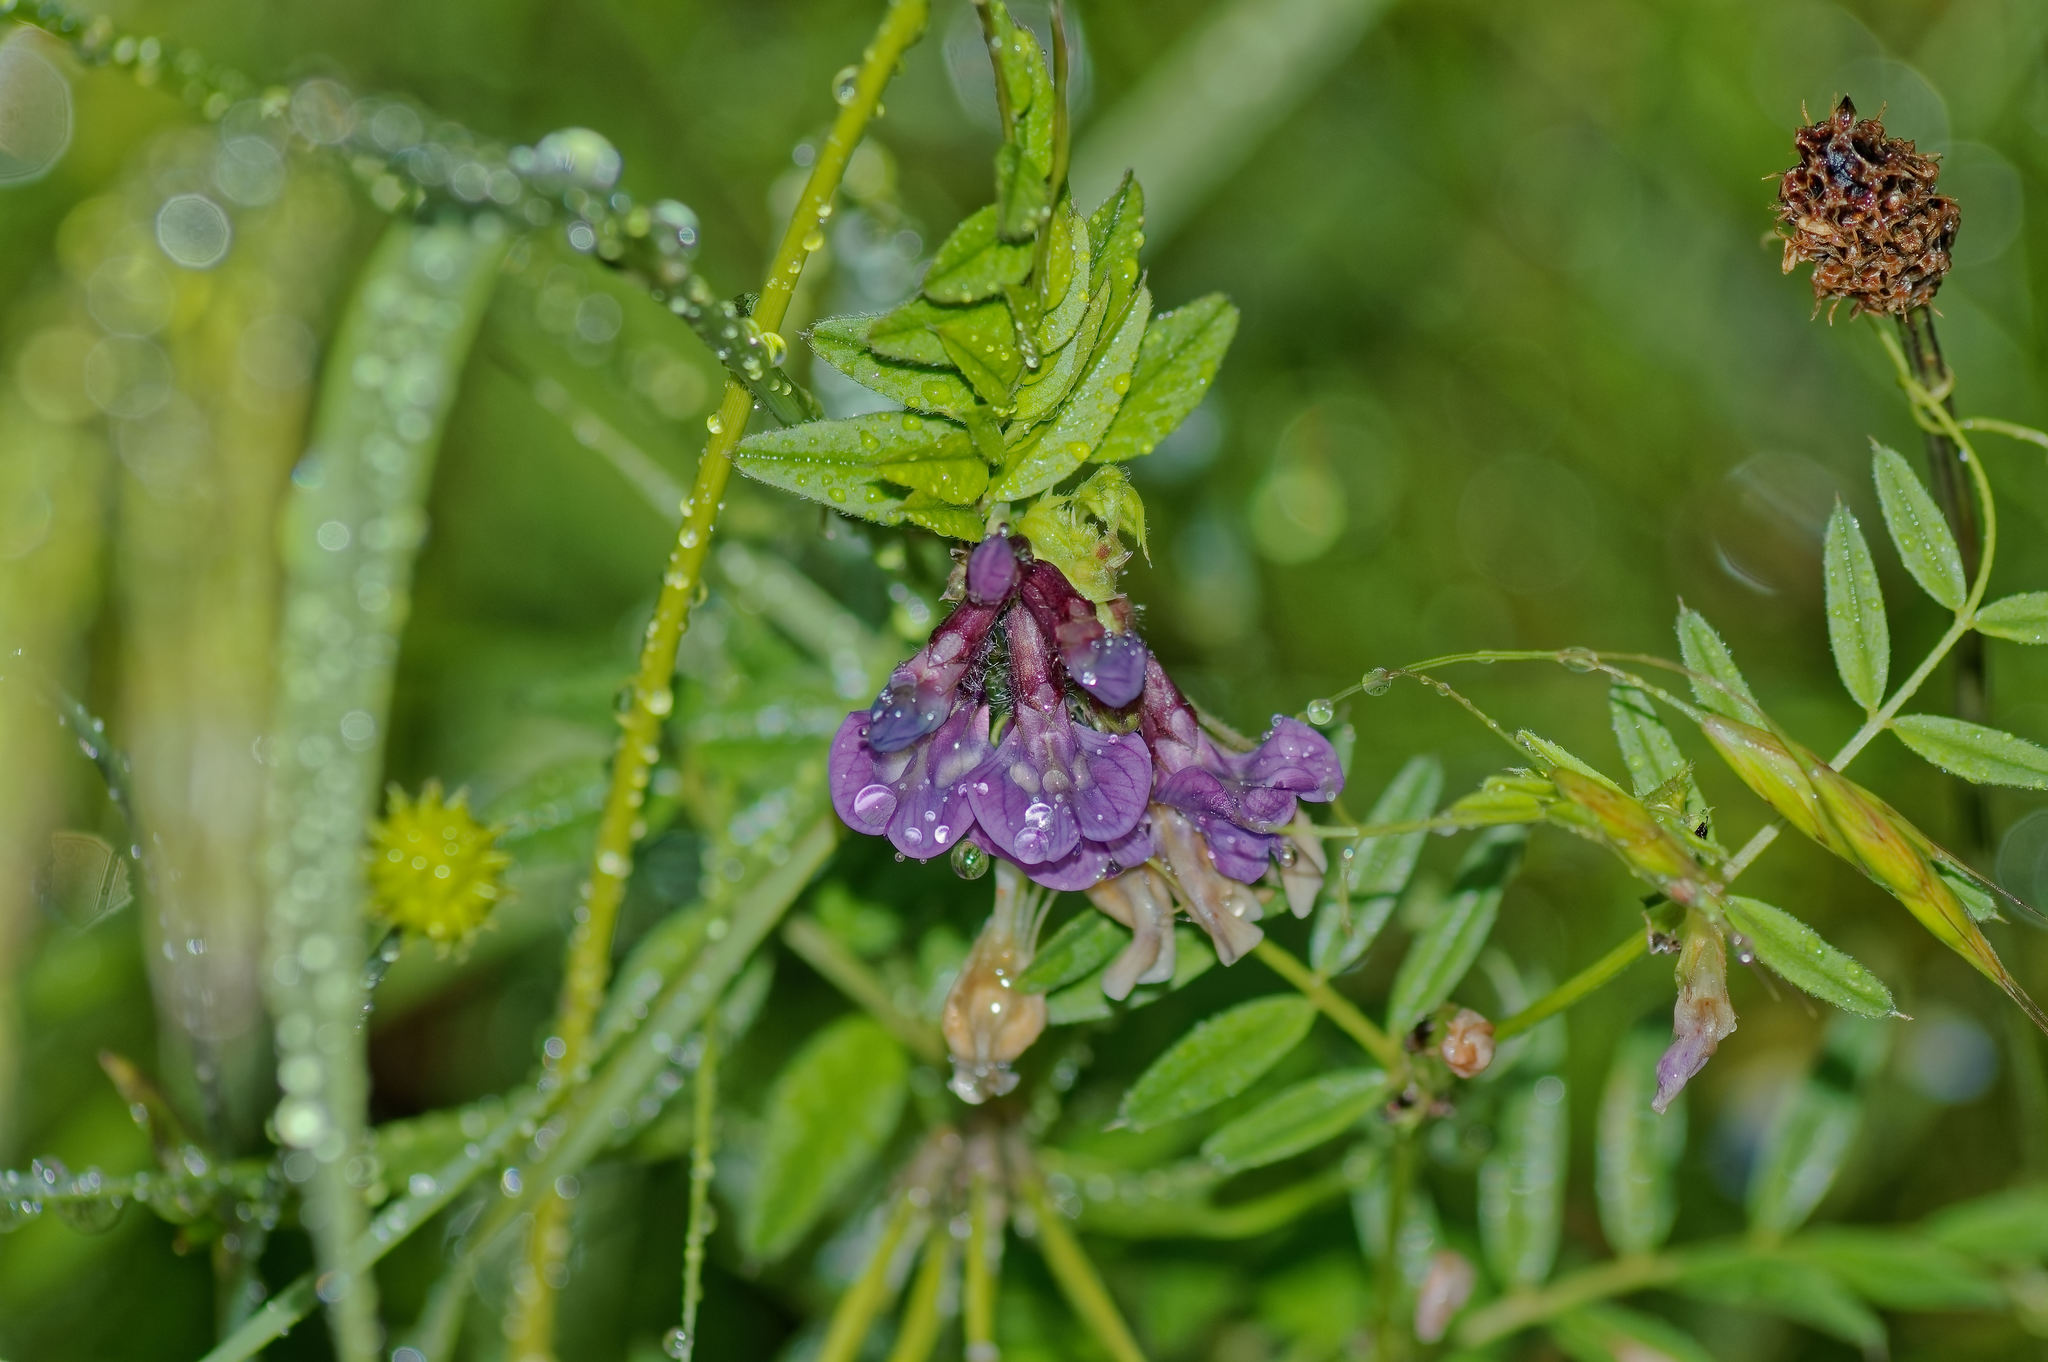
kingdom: Plantae
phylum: Tracheophyta
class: Magnoliopsida
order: Fabales
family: Fabaceae
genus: Vicia
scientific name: Vicia sepium
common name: Bush vetch
